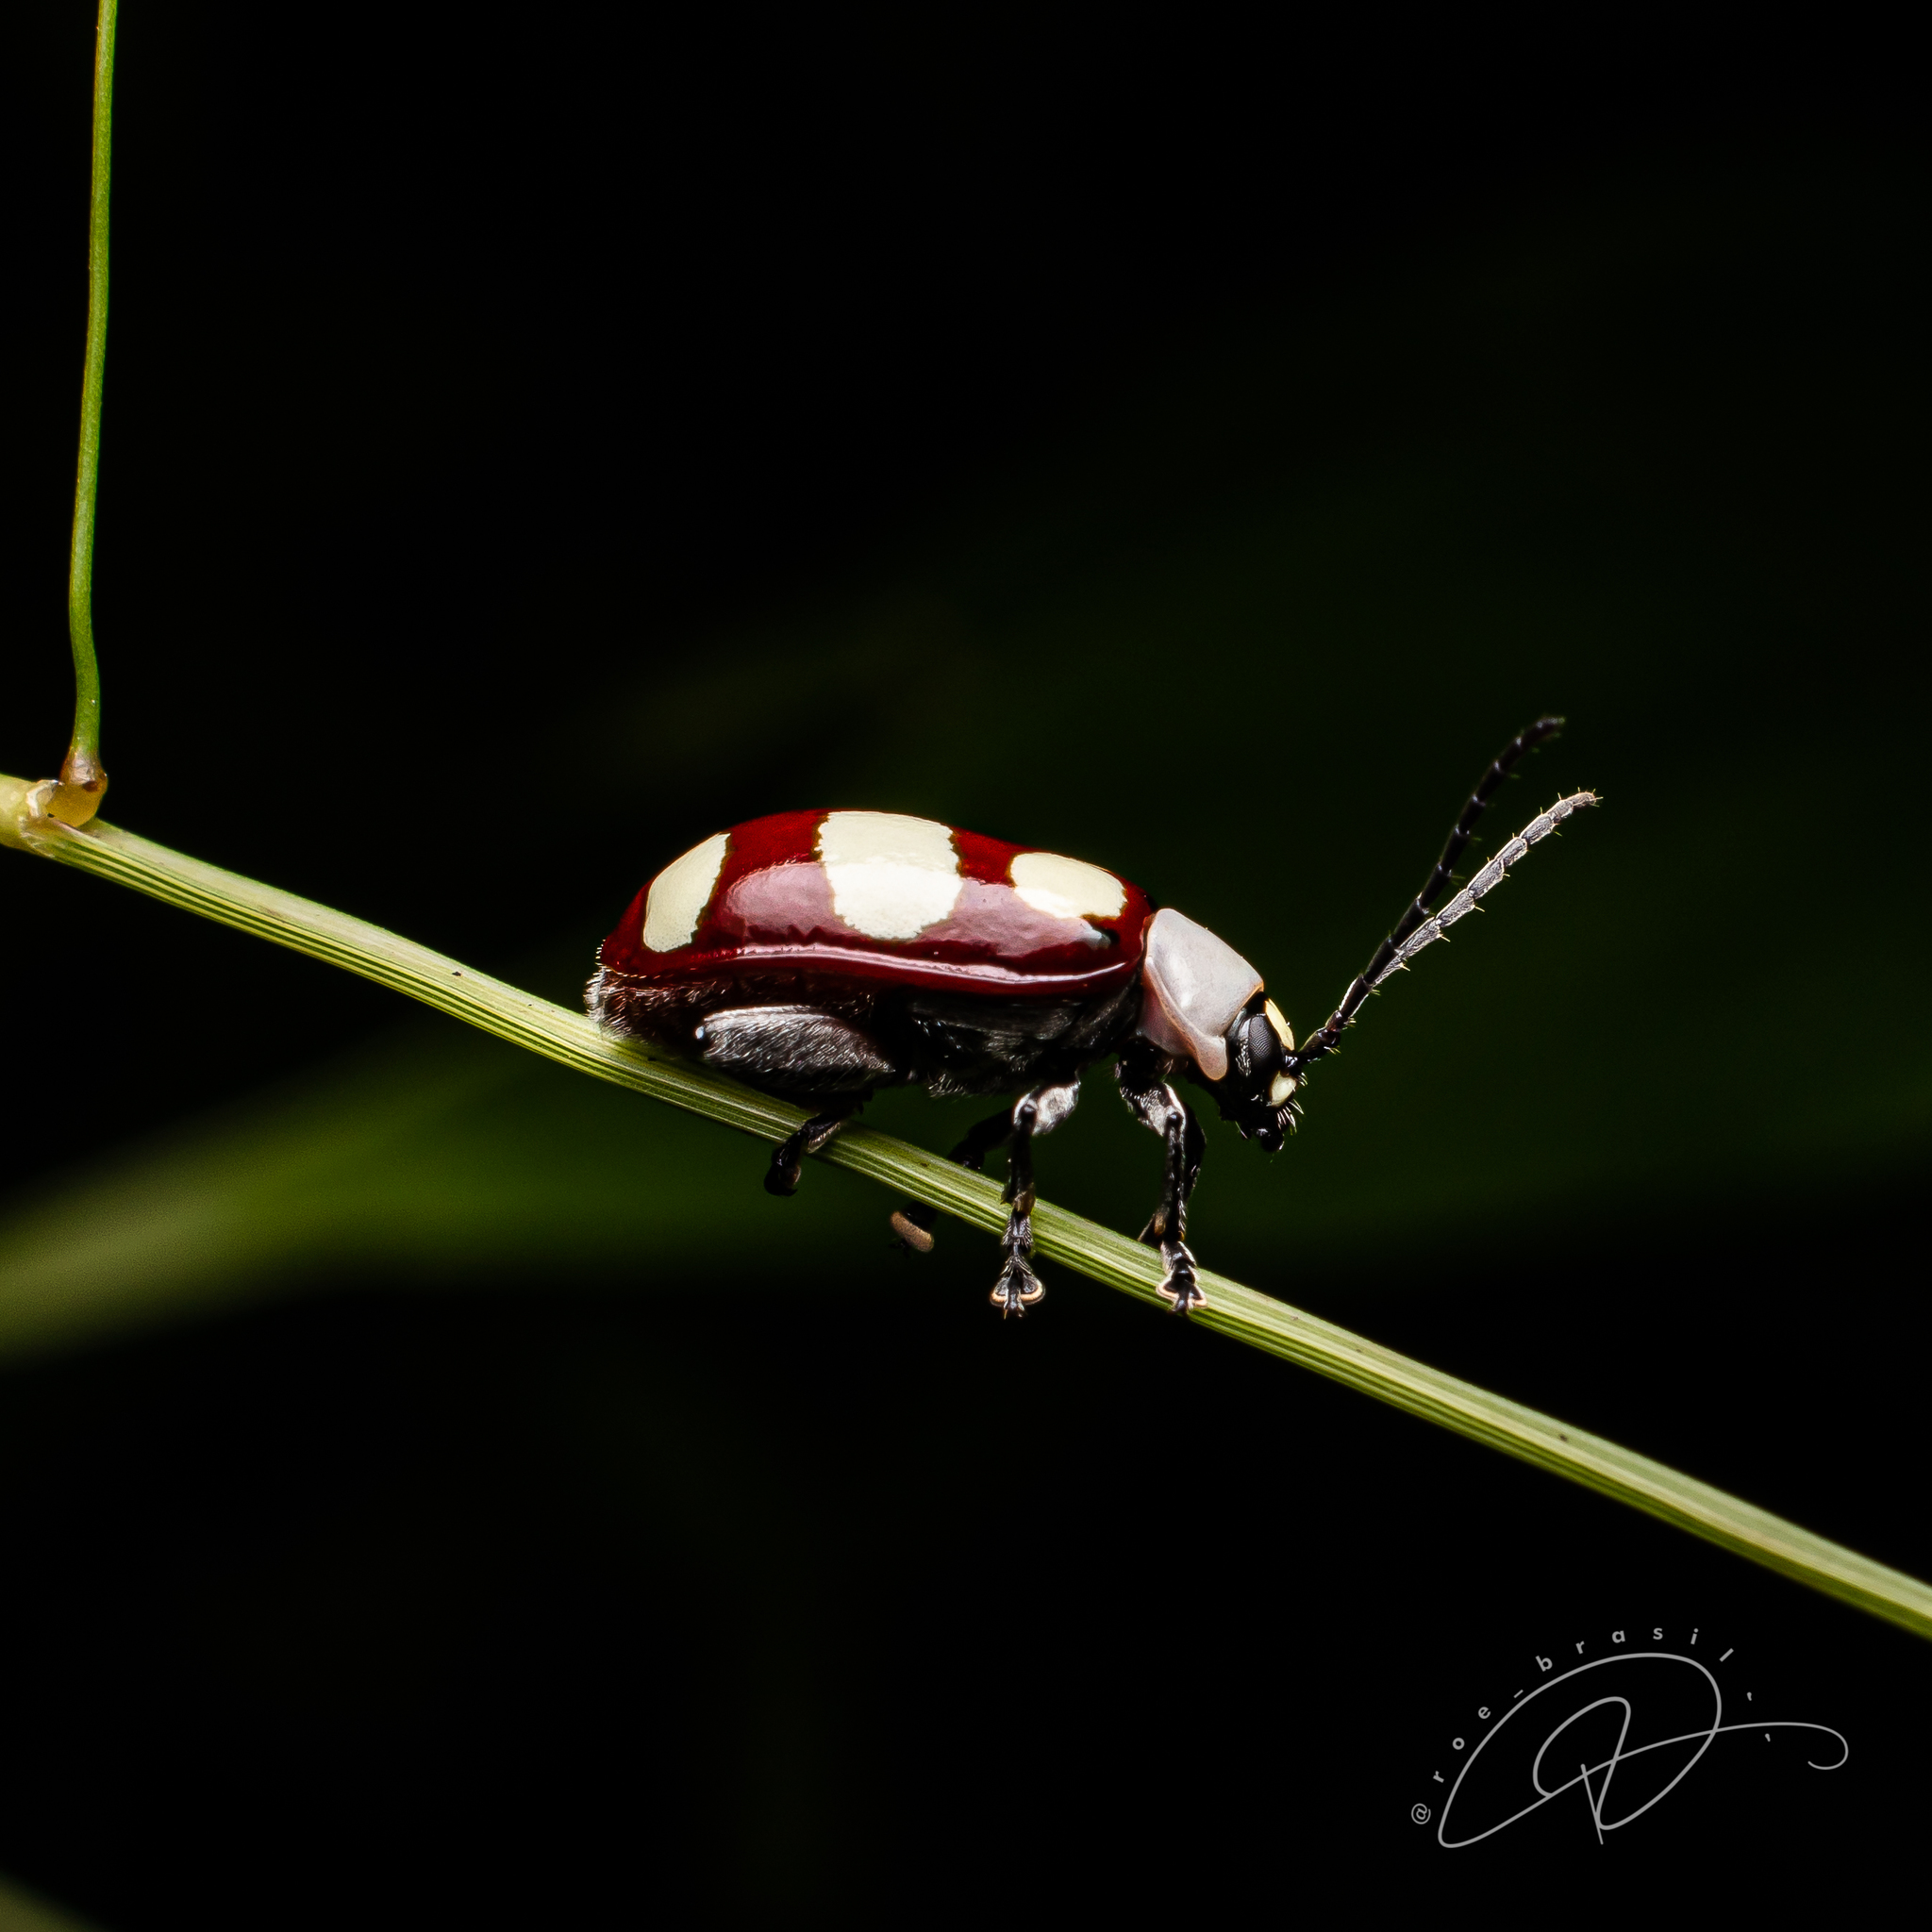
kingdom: Animalia
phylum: Arthropoda
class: Insecta
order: Coleoptera
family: Chrysomelidae
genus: Omophoita
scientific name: Omophoita
